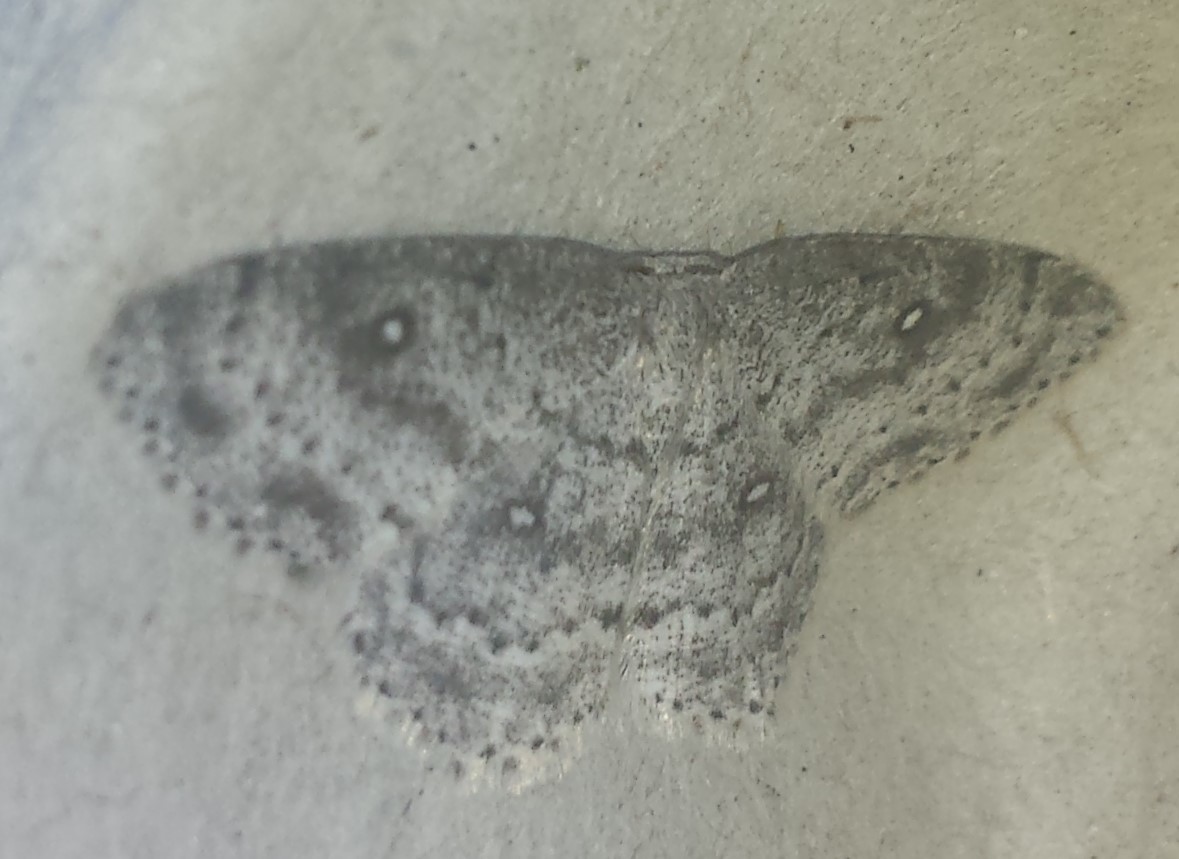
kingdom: Animalia
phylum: Arthropoda
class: Insecta
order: Lepidoptera
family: Geometridae
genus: Cyclophora
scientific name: Cyclophora pendulinaria
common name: Sweet fern geometer
